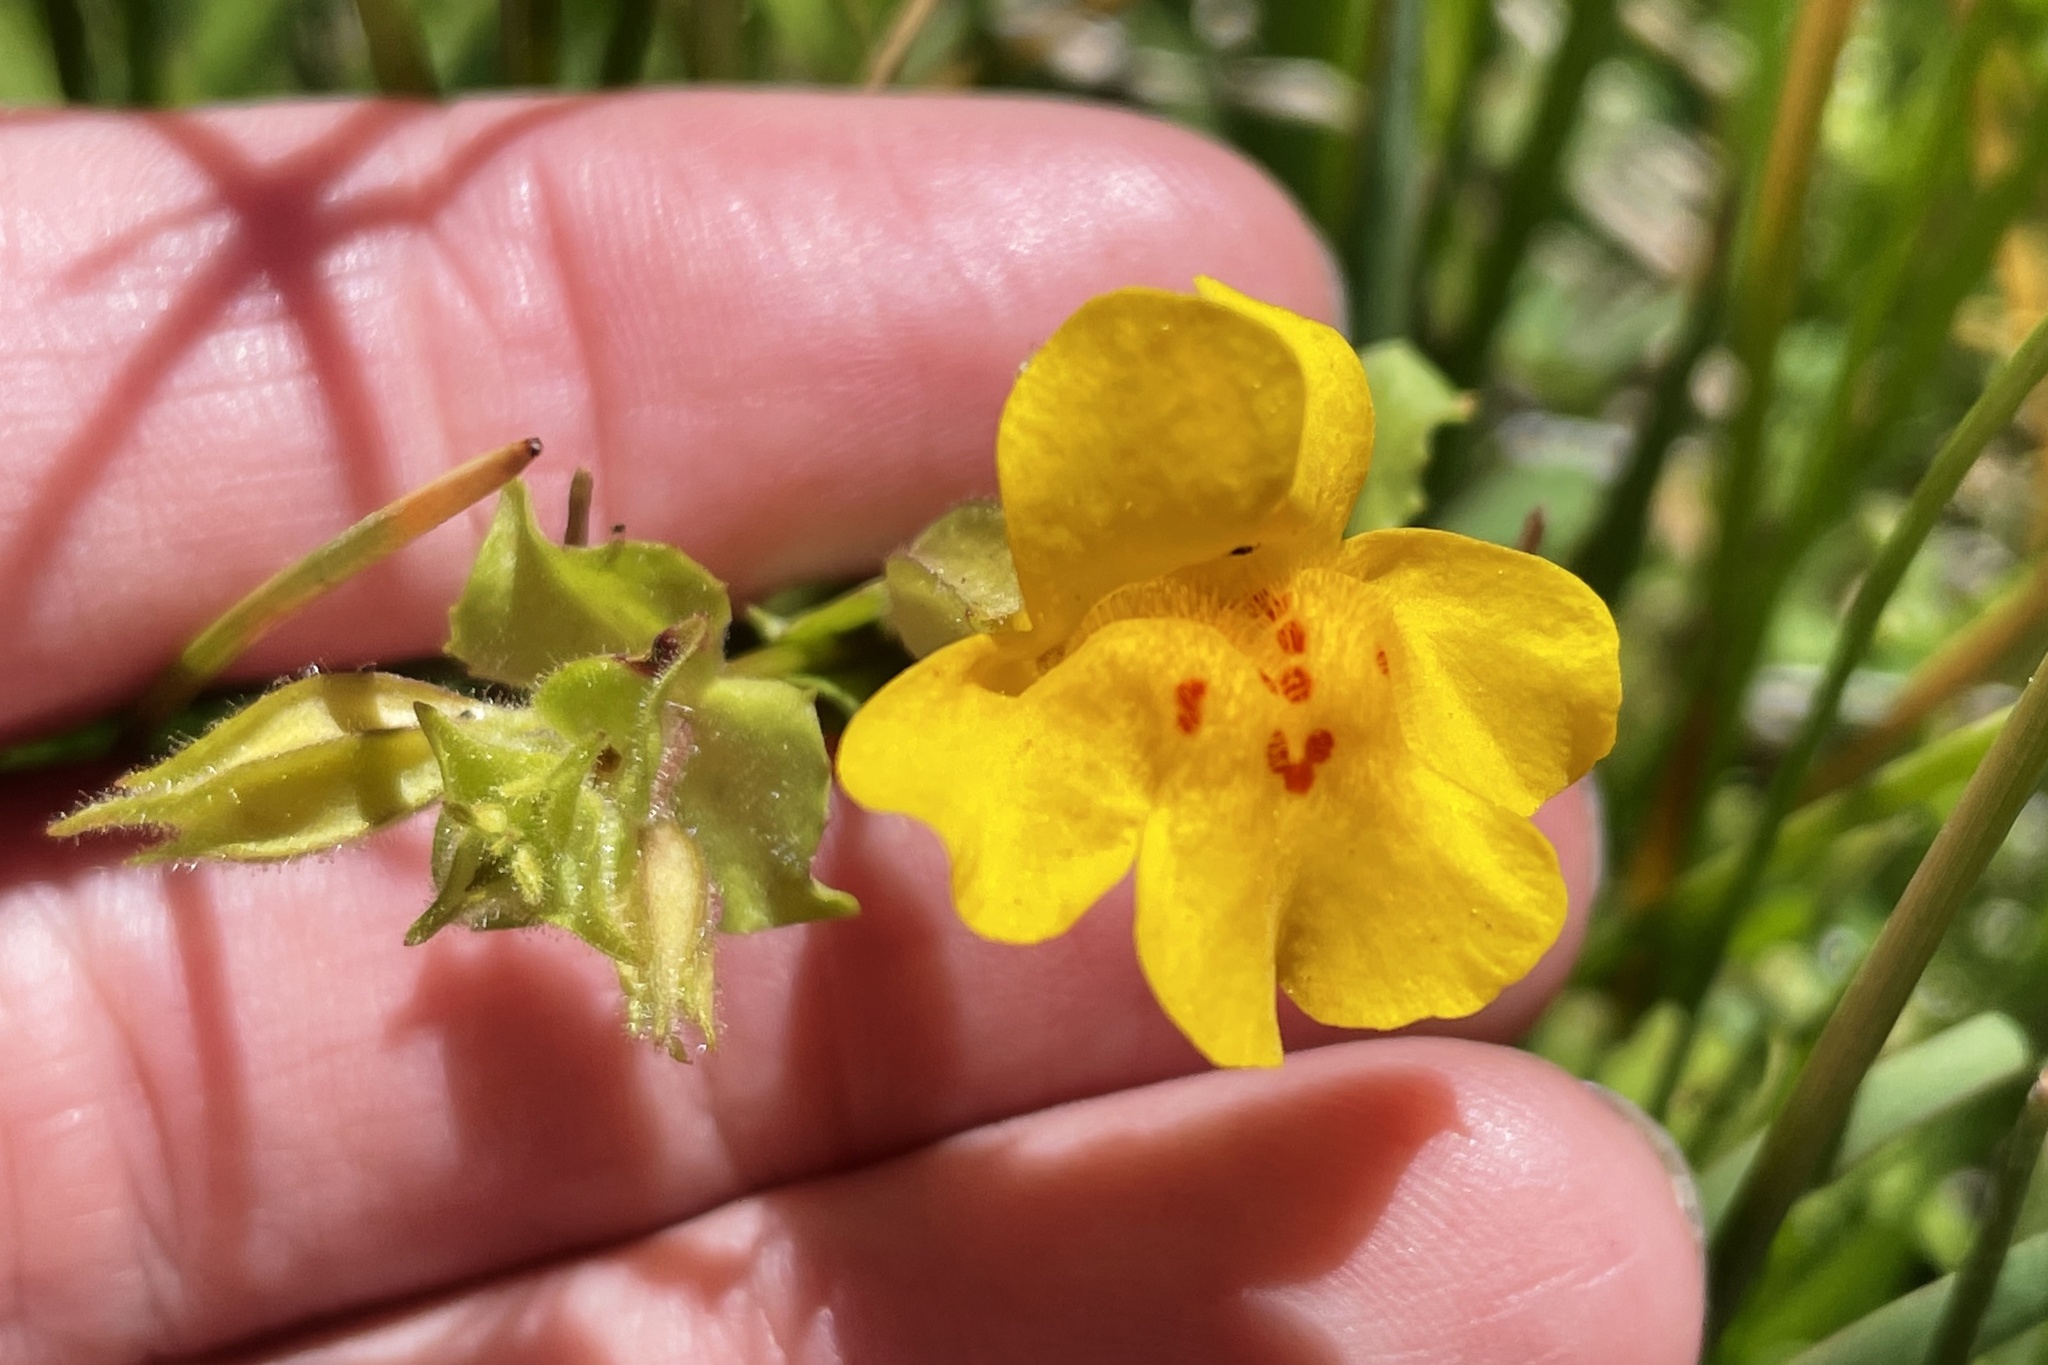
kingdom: Plantae
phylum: Tracheophyta
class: Magnoliopsida
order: Lamiales
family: Phrymaceae
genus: Erythranthe
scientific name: Erythranthe guttata
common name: Monkeyflower
